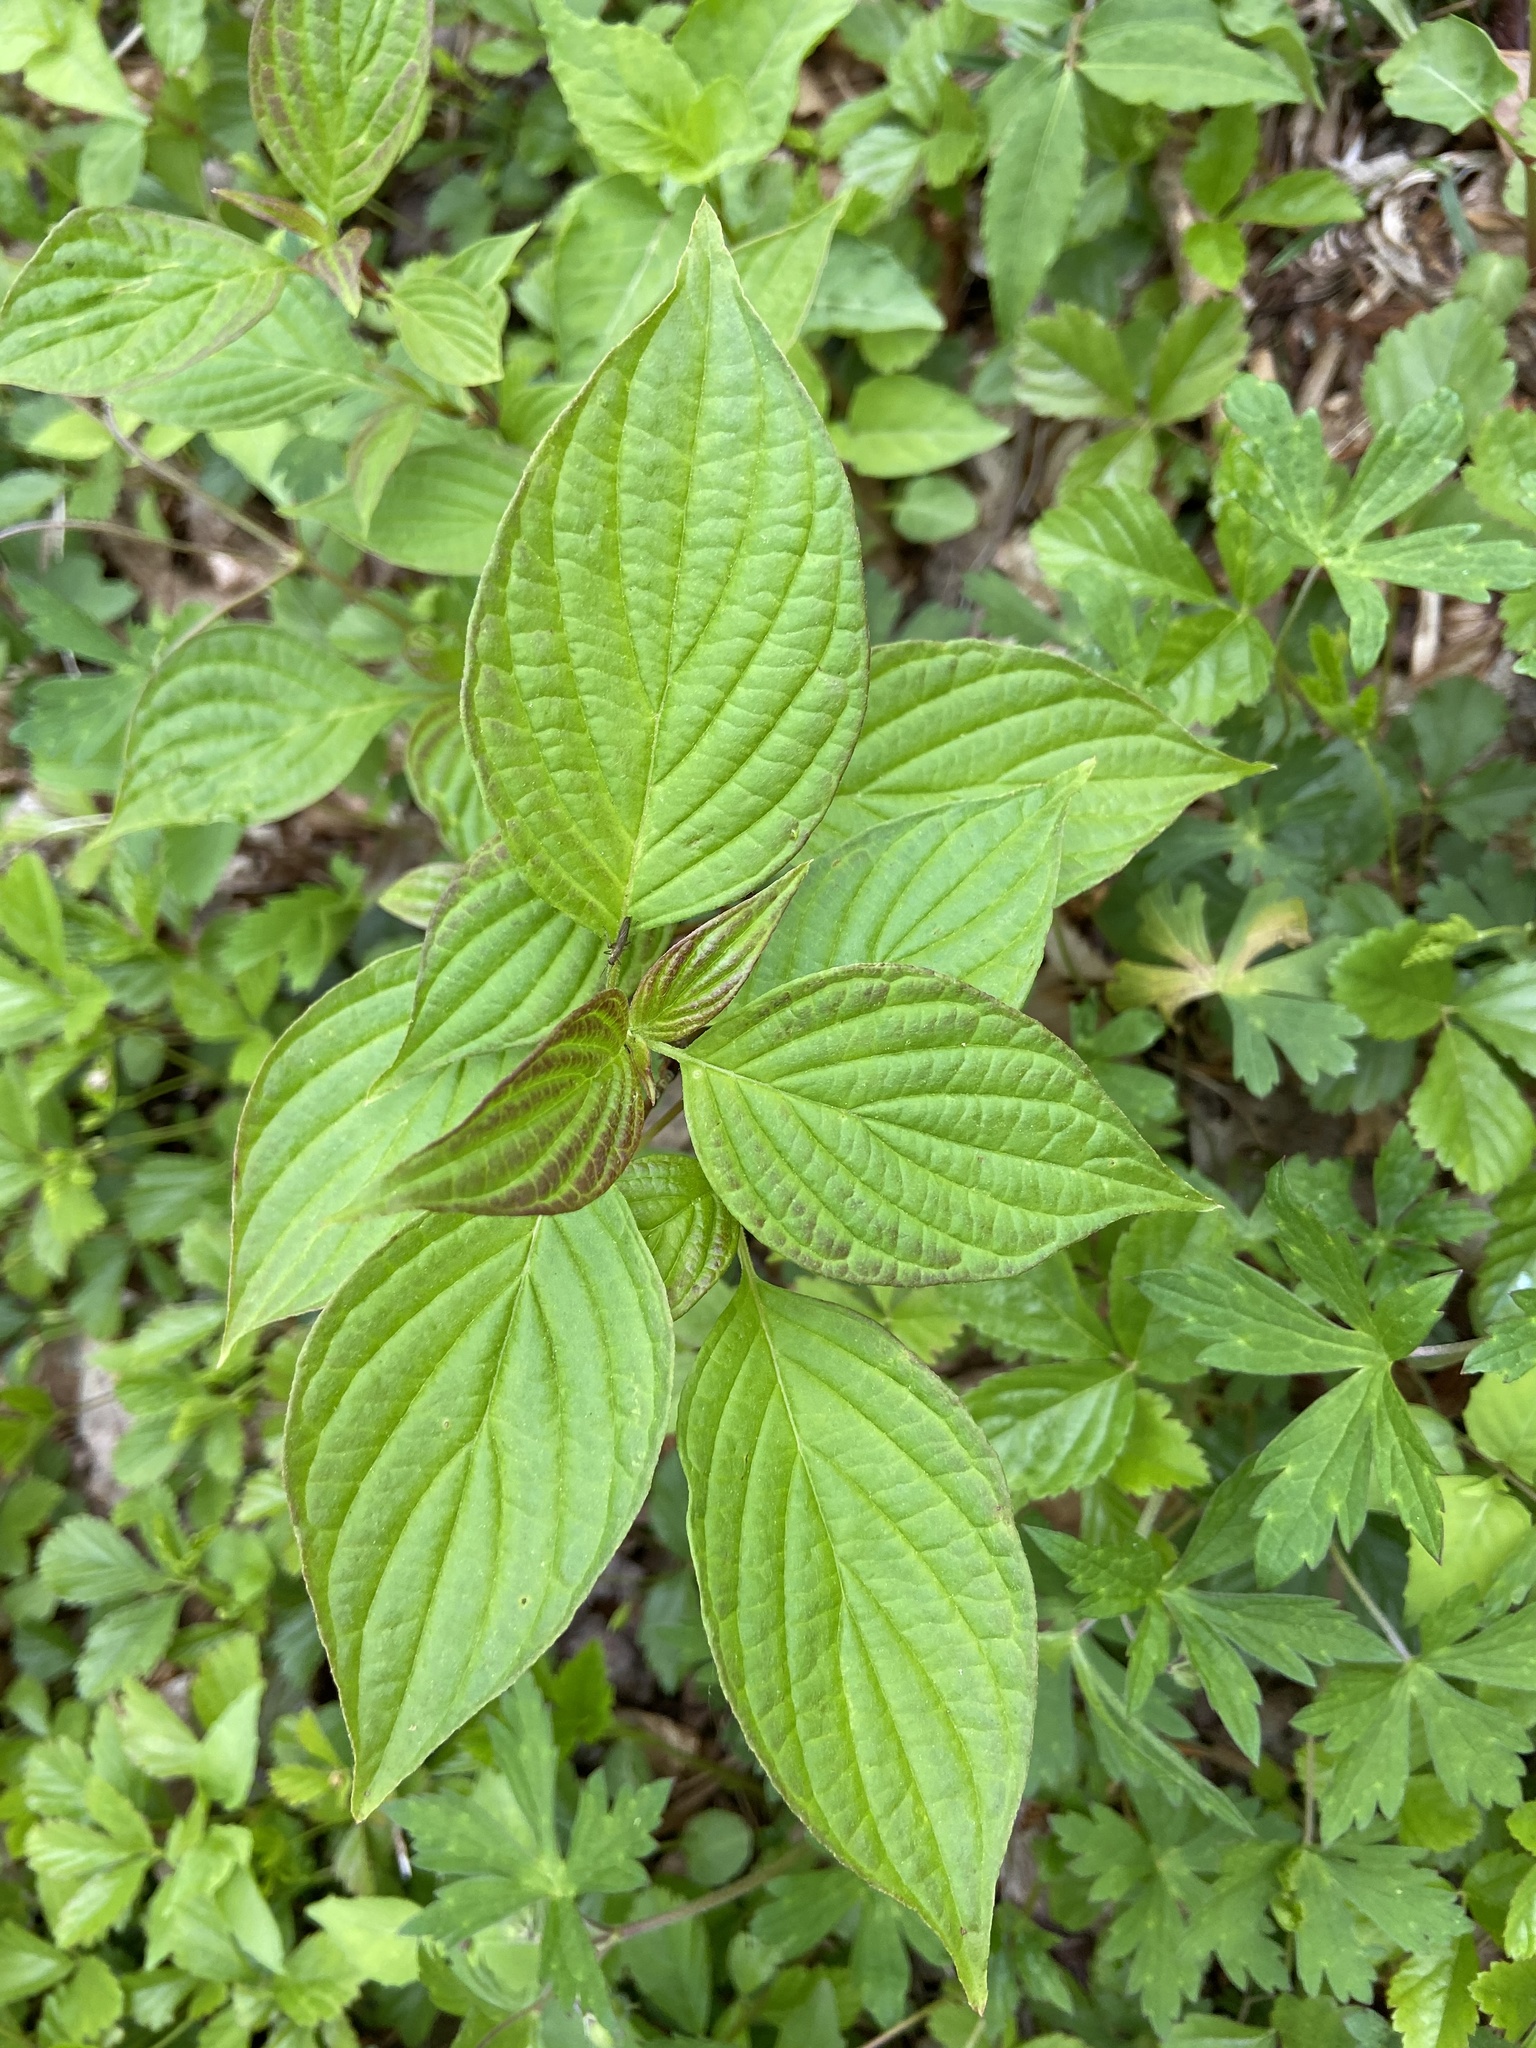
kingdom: Plantae
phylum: Tracheophyta
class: Magnoliopsida
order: Cornales
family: Cornaceae
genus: Cornus
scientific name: Cornus alternifolia
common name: Pagoda dogwood
